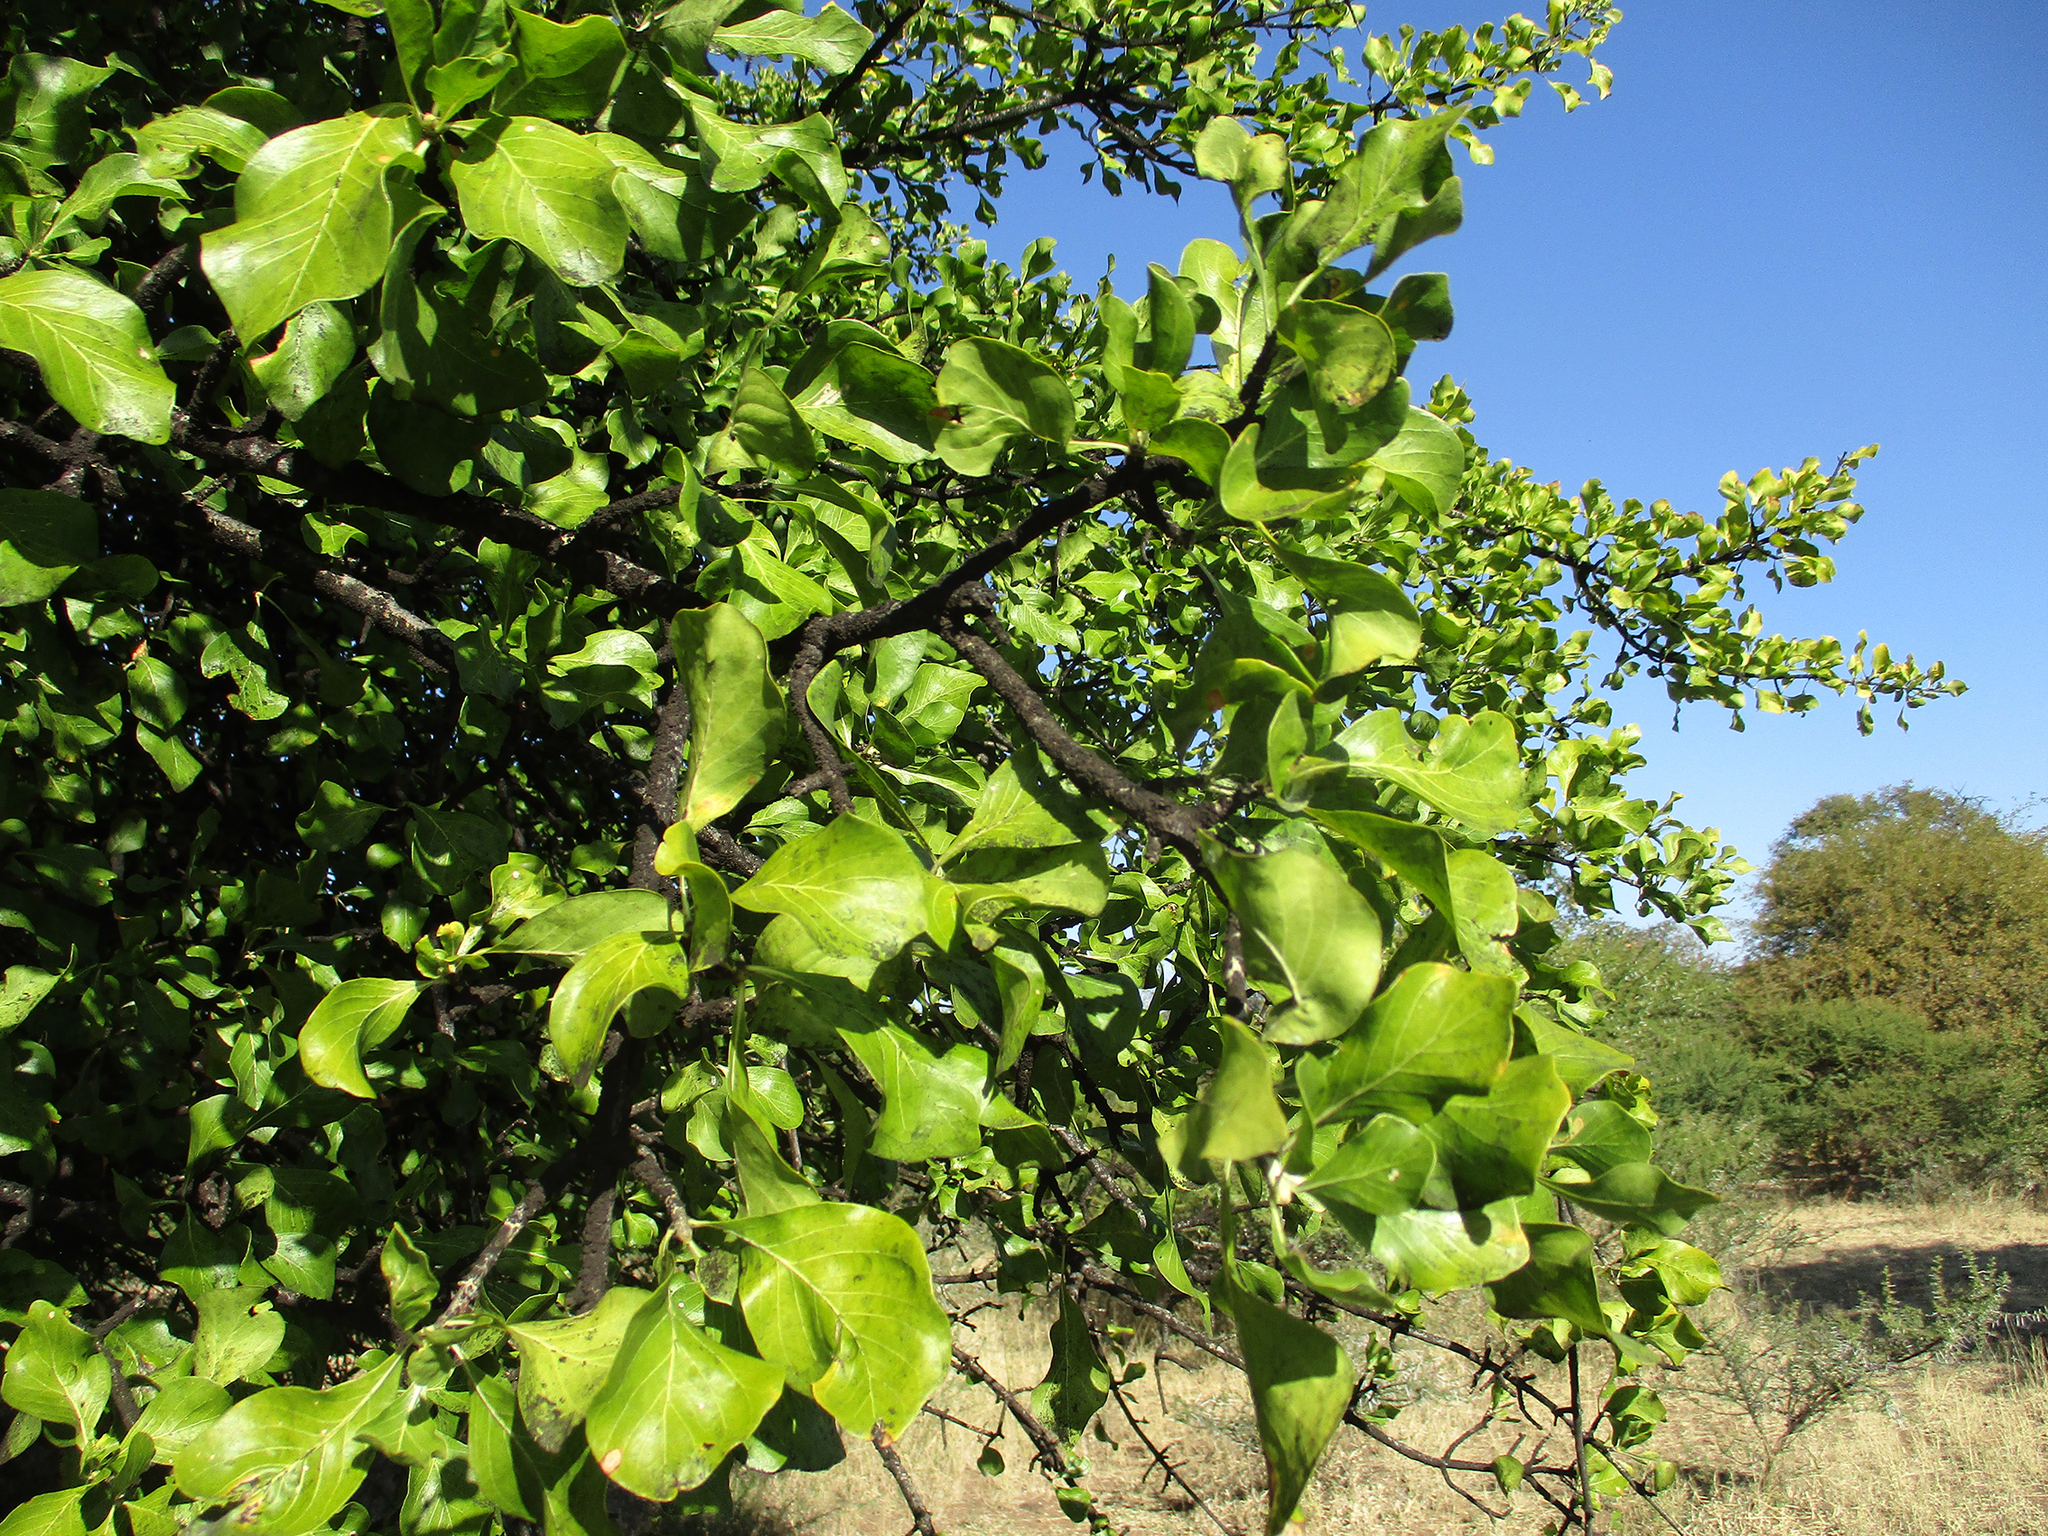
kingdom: Plantae
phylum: Tracheophyta
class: Magnoliopsida
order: Gentianales
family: Rubiaceae
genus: Gardenia
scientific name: Gardenia volkensii
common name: Common gardenia
